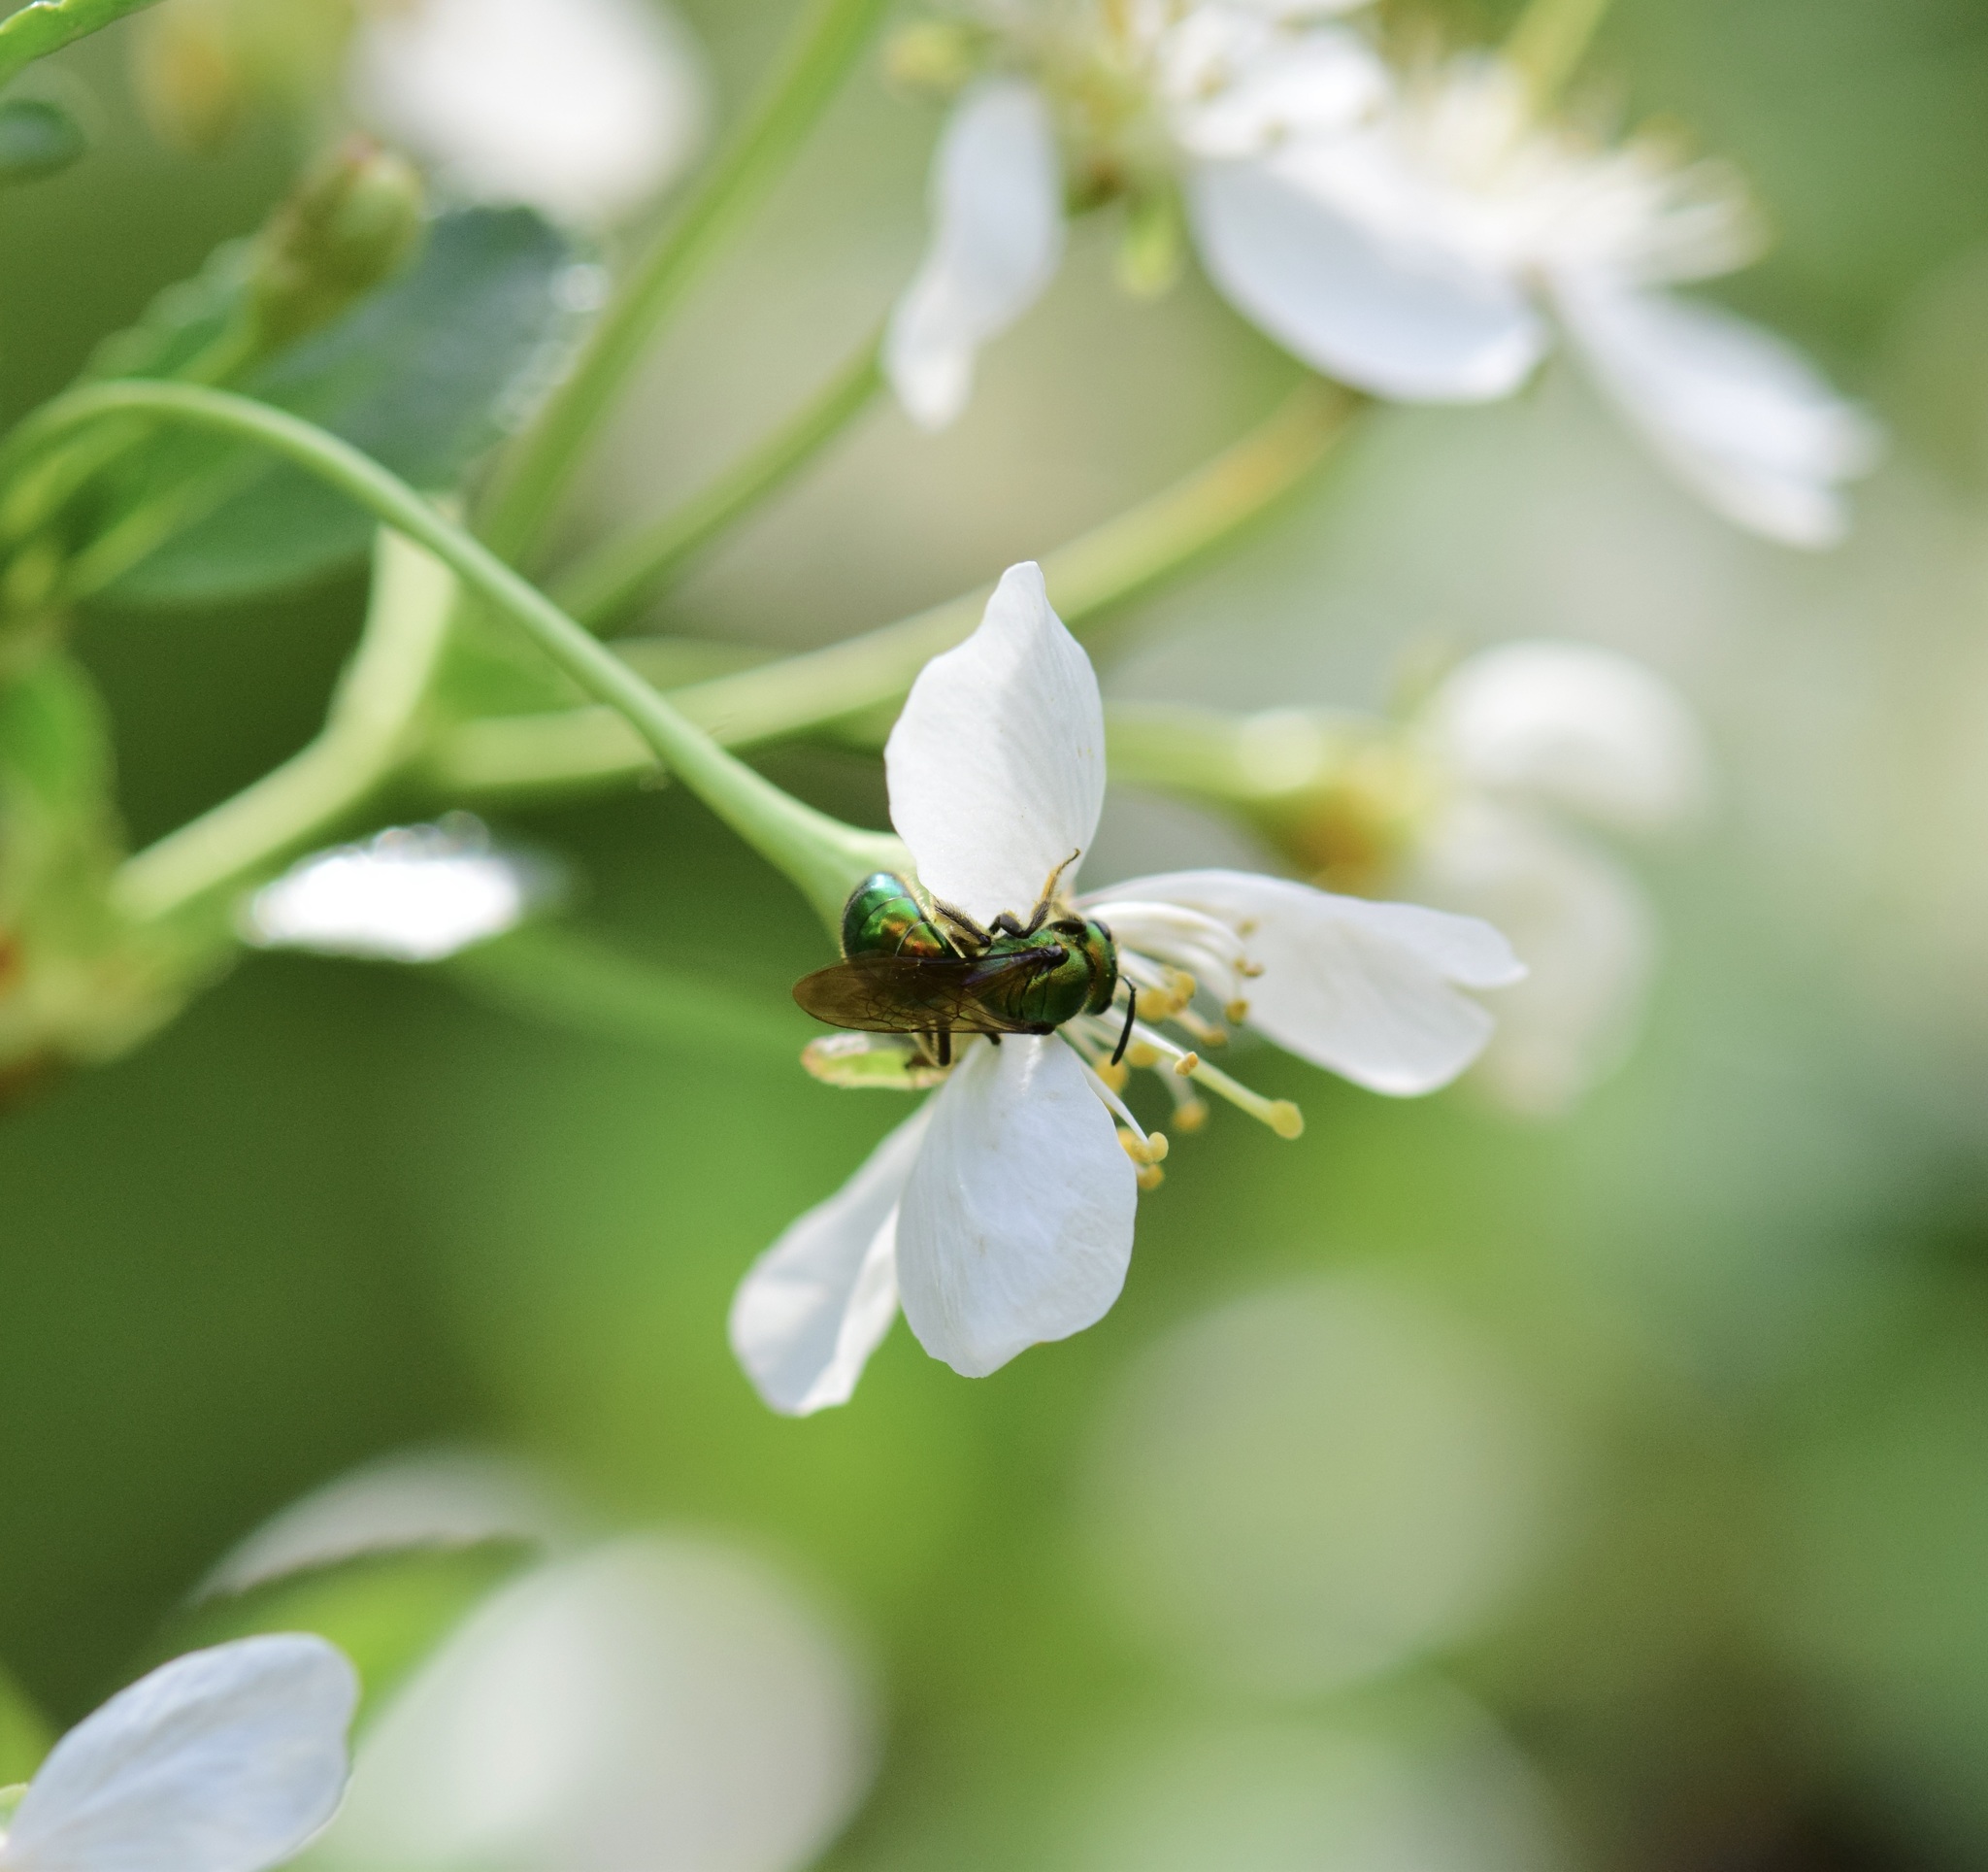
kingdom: Animalia
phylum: Arthropoda
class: Insecta
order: Hymenoptera
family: Halictidae
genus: Augochlora
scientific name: Augochlora pura
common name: Pure green sweat bee
